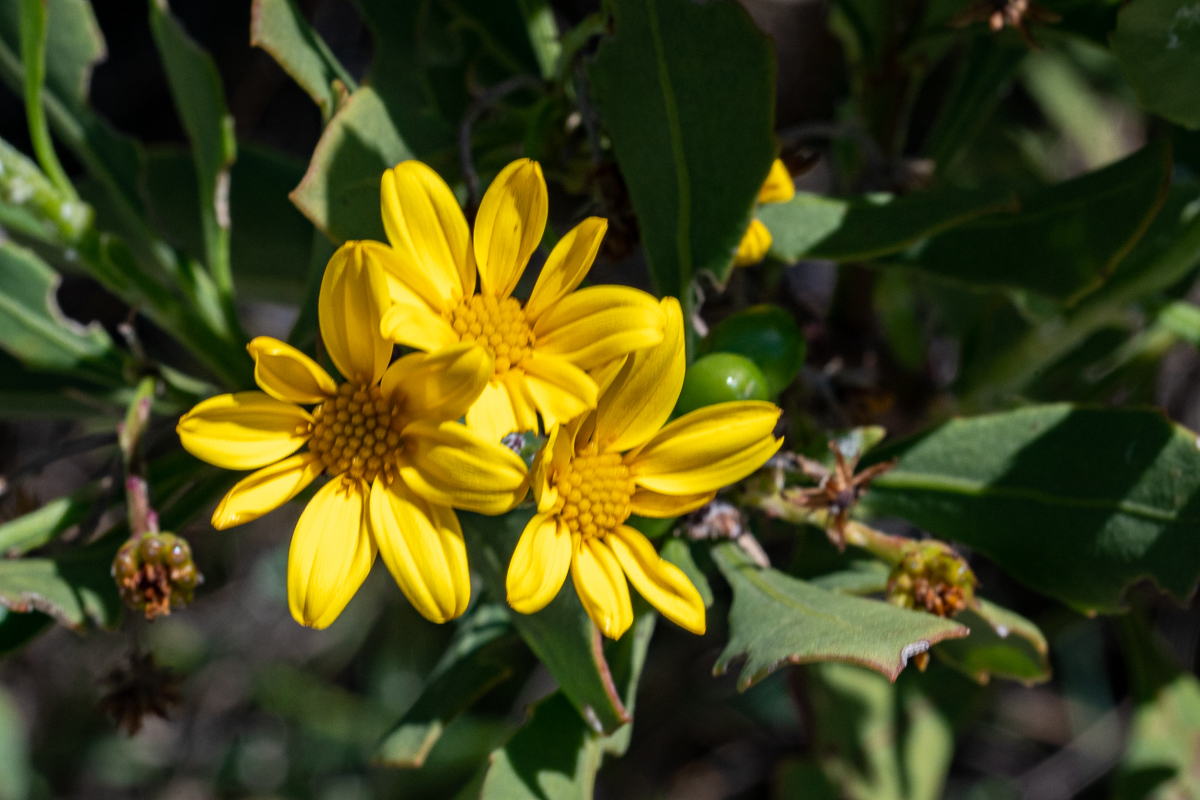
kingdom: Plantae
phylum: Tracheophyta
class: Magnoliopsida
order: Asterales
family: Asteraceae
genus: Osteospermum
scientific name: Osteospermum moniliferum
